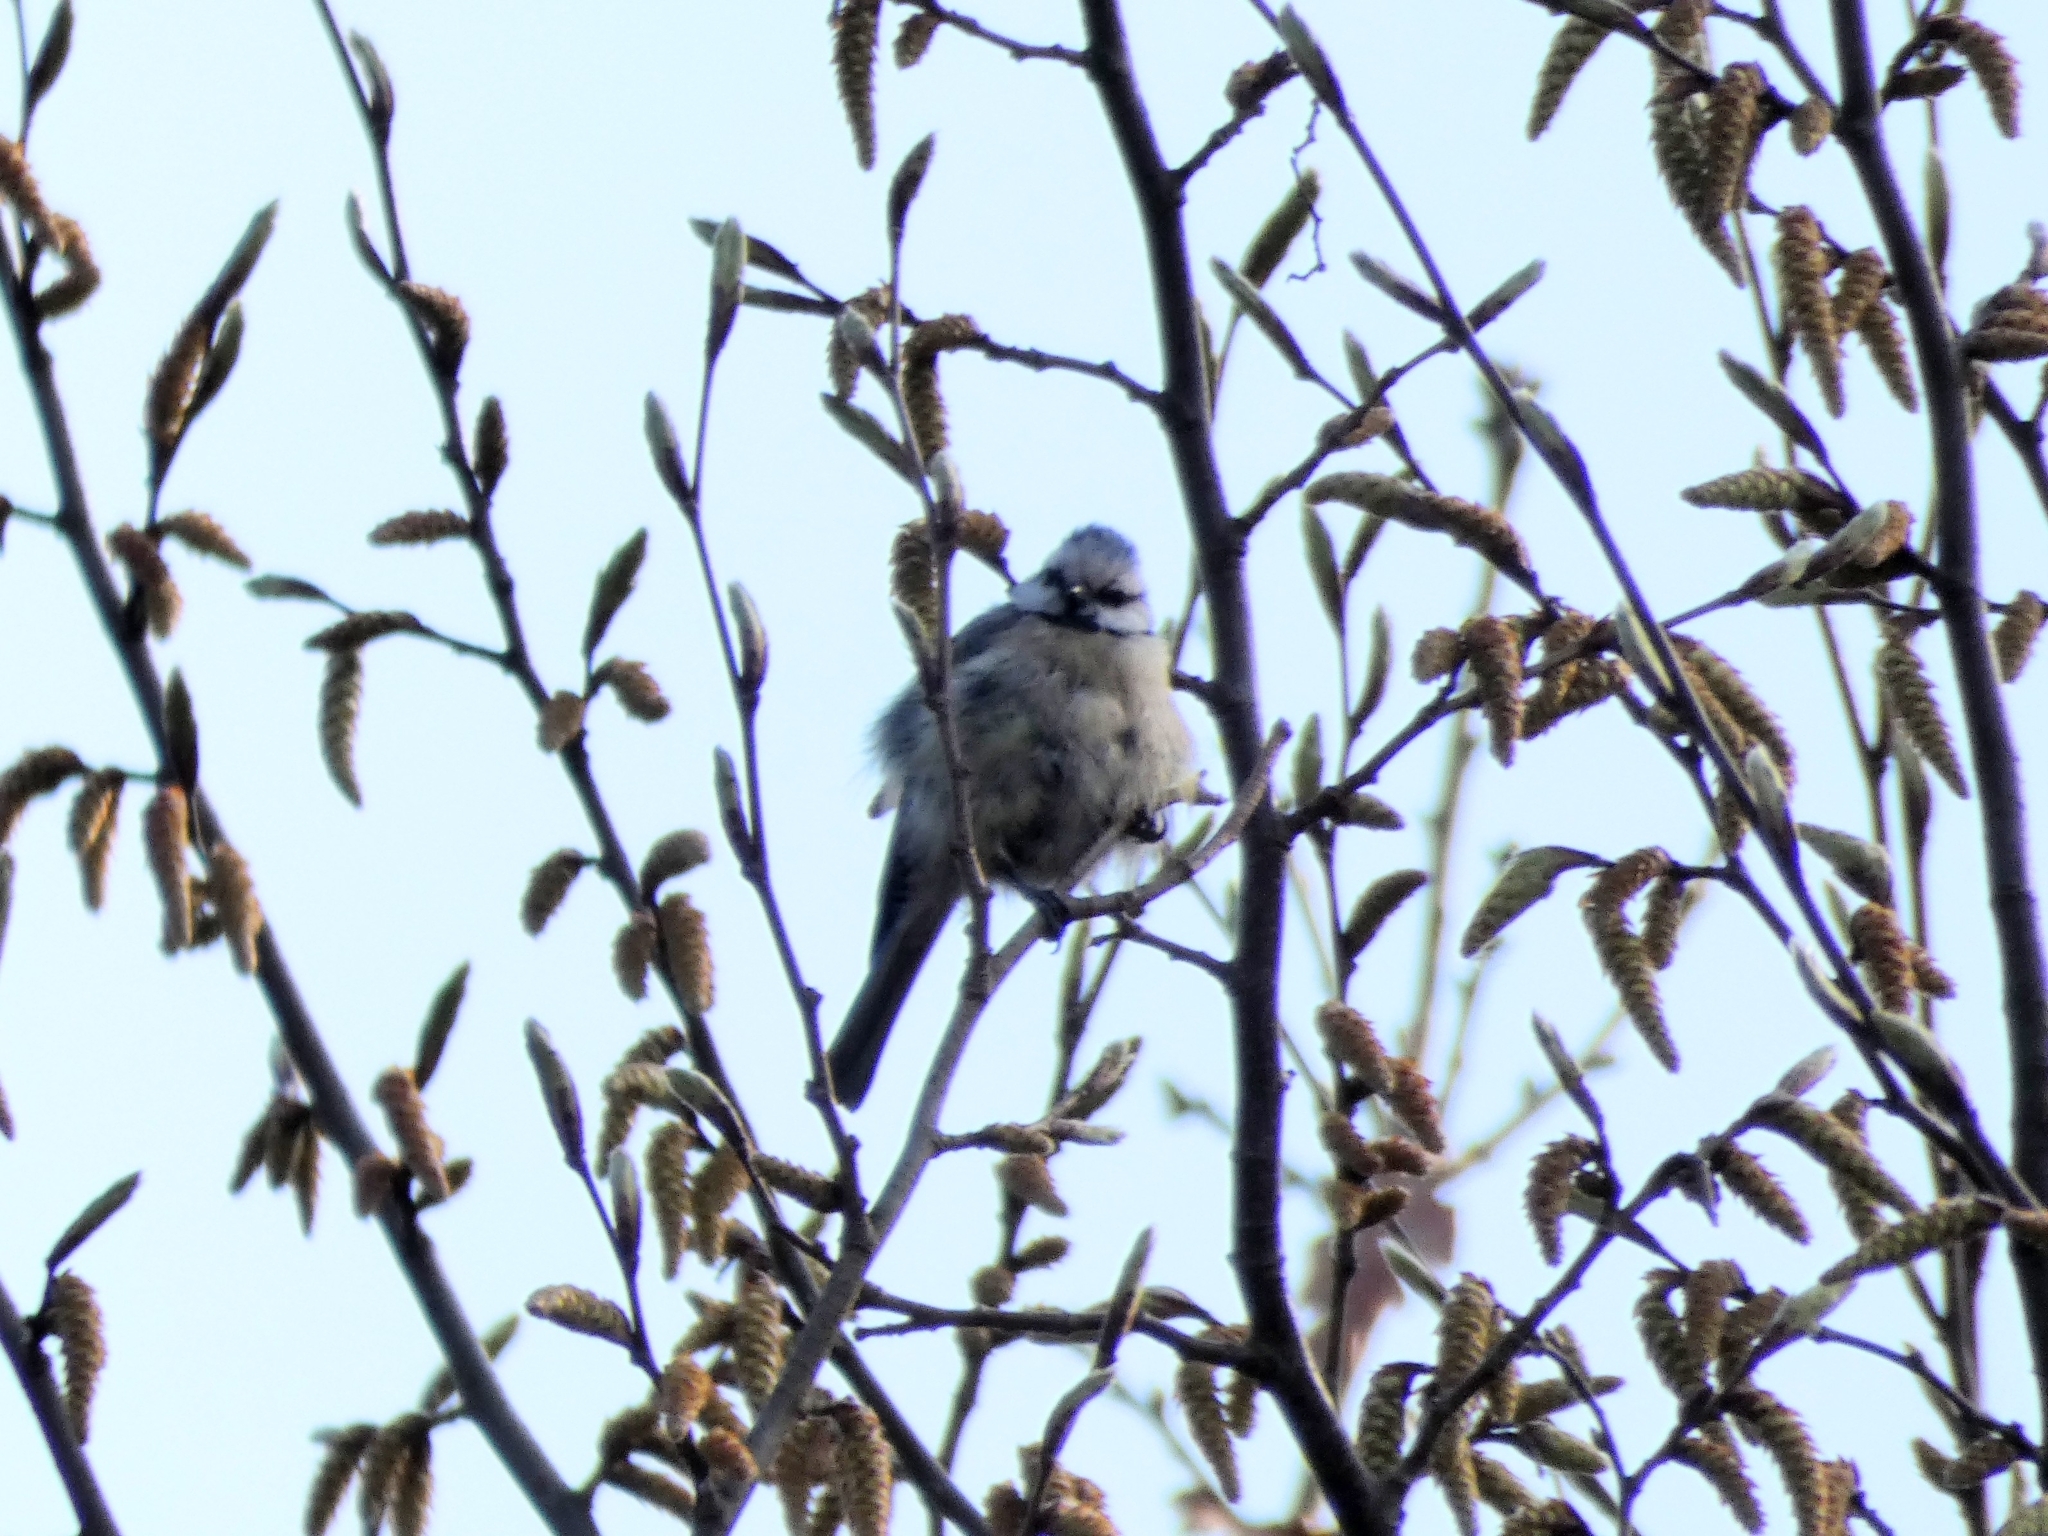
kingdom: Animalia
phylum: Chordata
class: Aves
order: Passeriformes
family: Paridae
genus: Cyanistes
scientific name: Cyanistes caeruleus
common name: Eurasian blue tit
